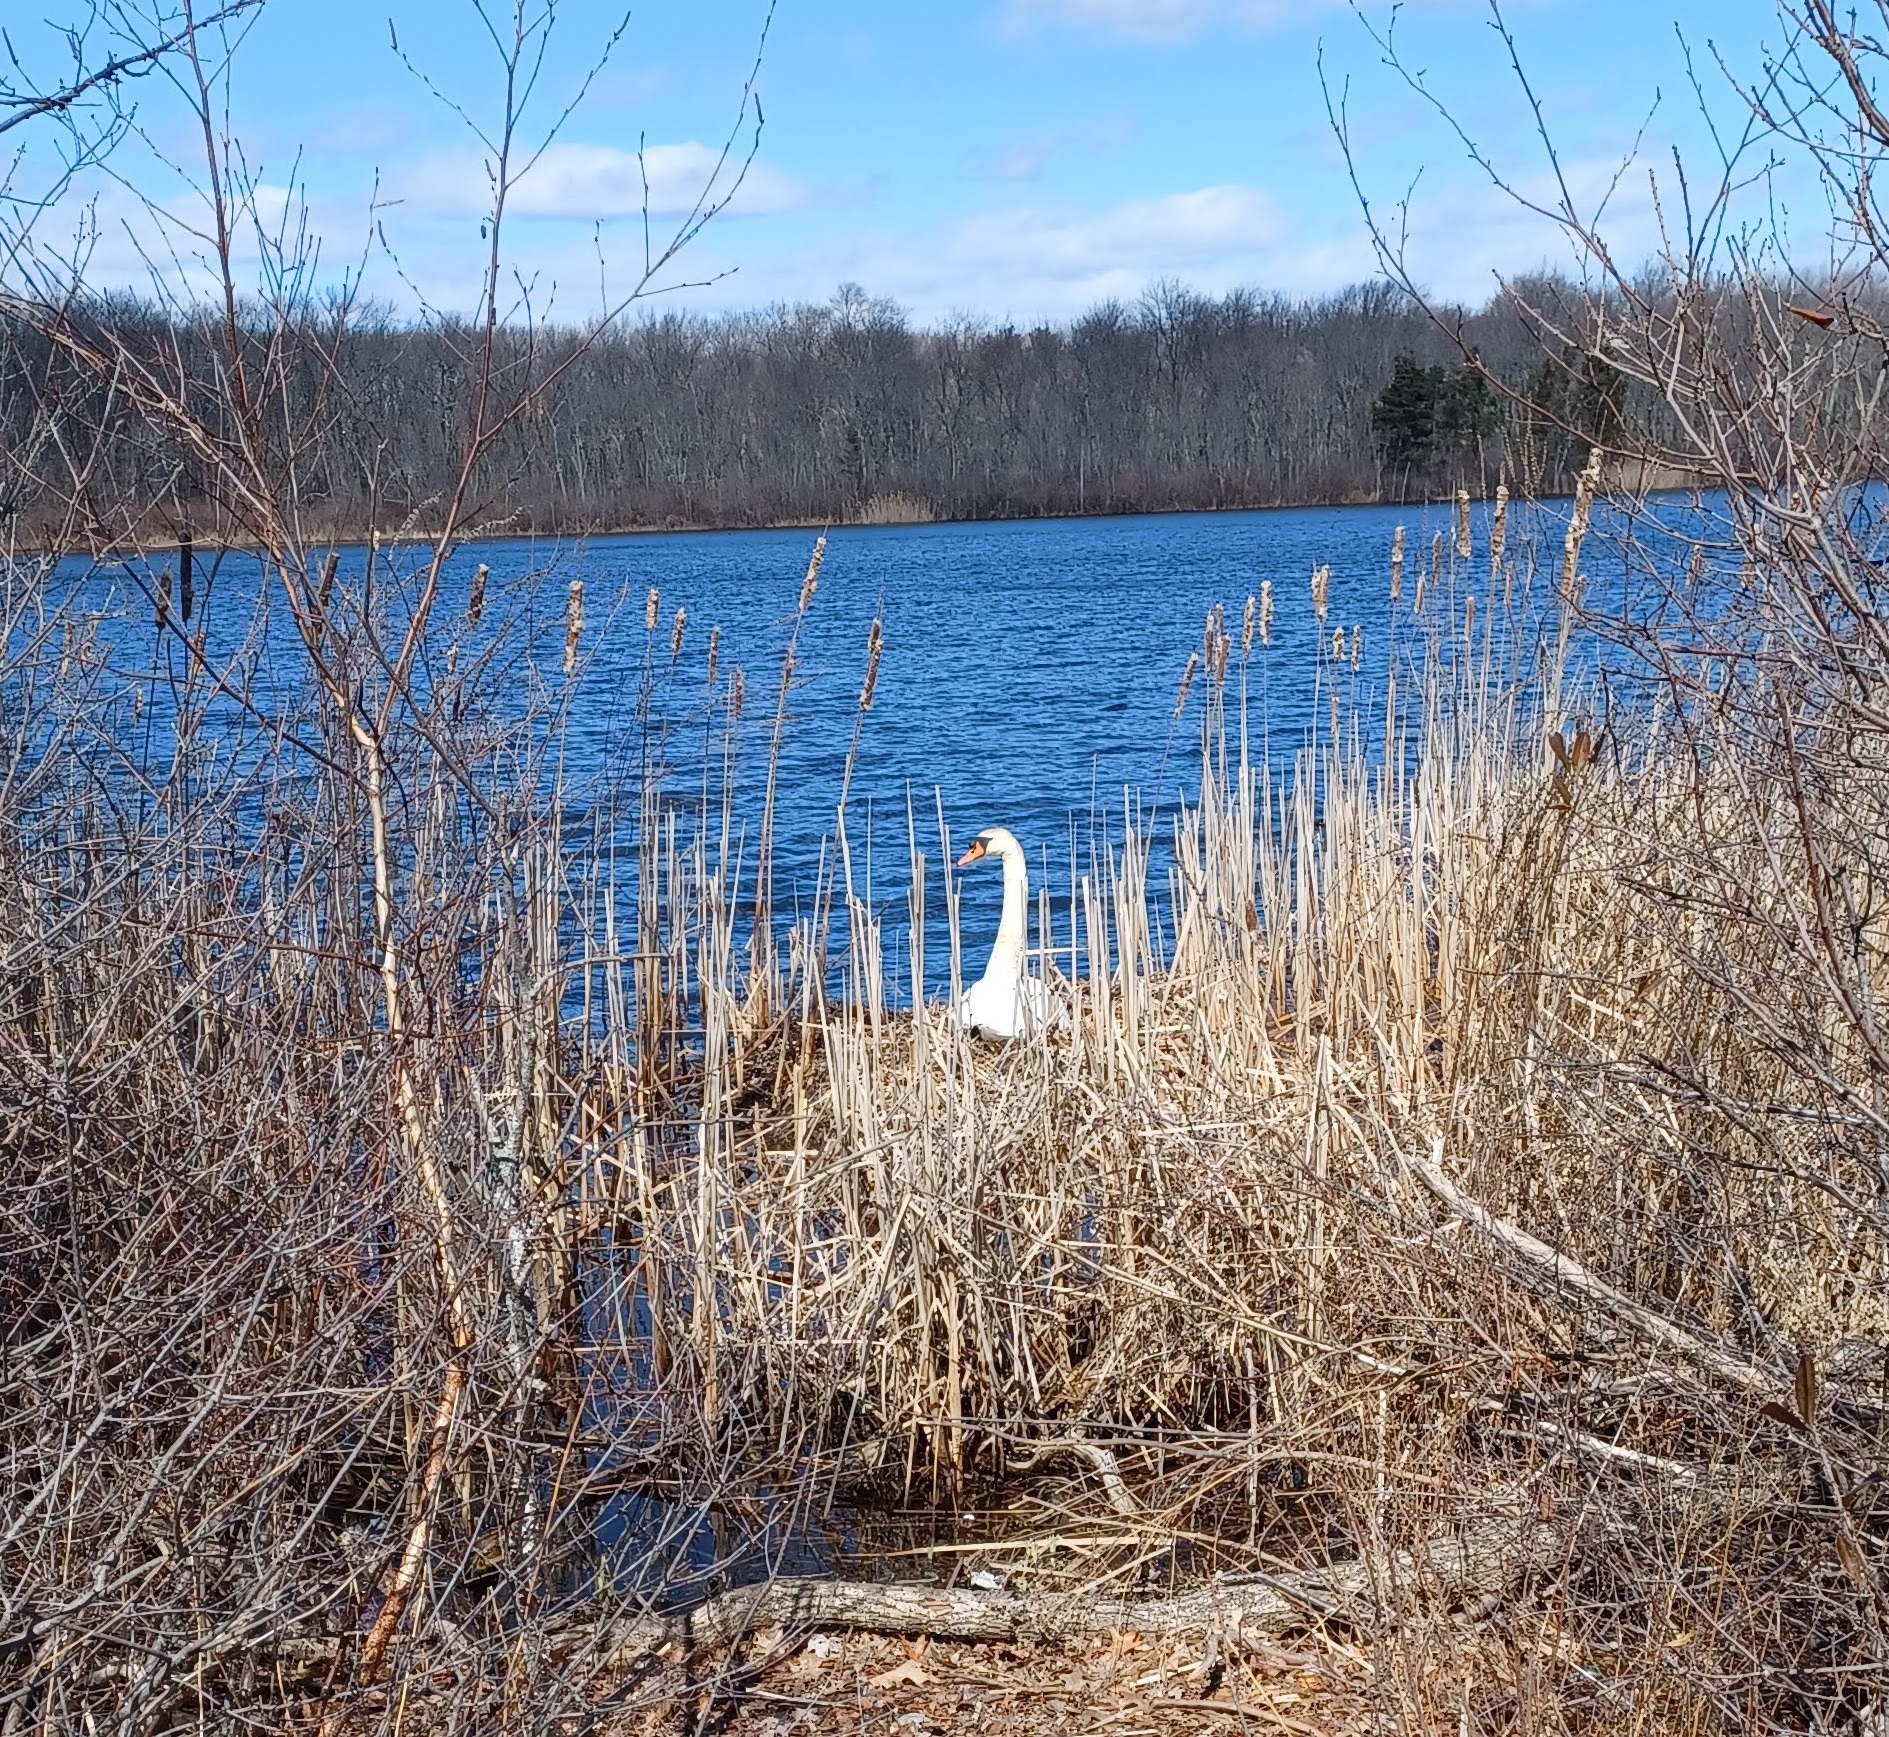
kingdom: Animalia
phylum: Chordata
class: Aves
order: Anseriformes
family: Anatidae
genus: Cygnus
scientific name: Cygnus olor
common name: Mute swan
